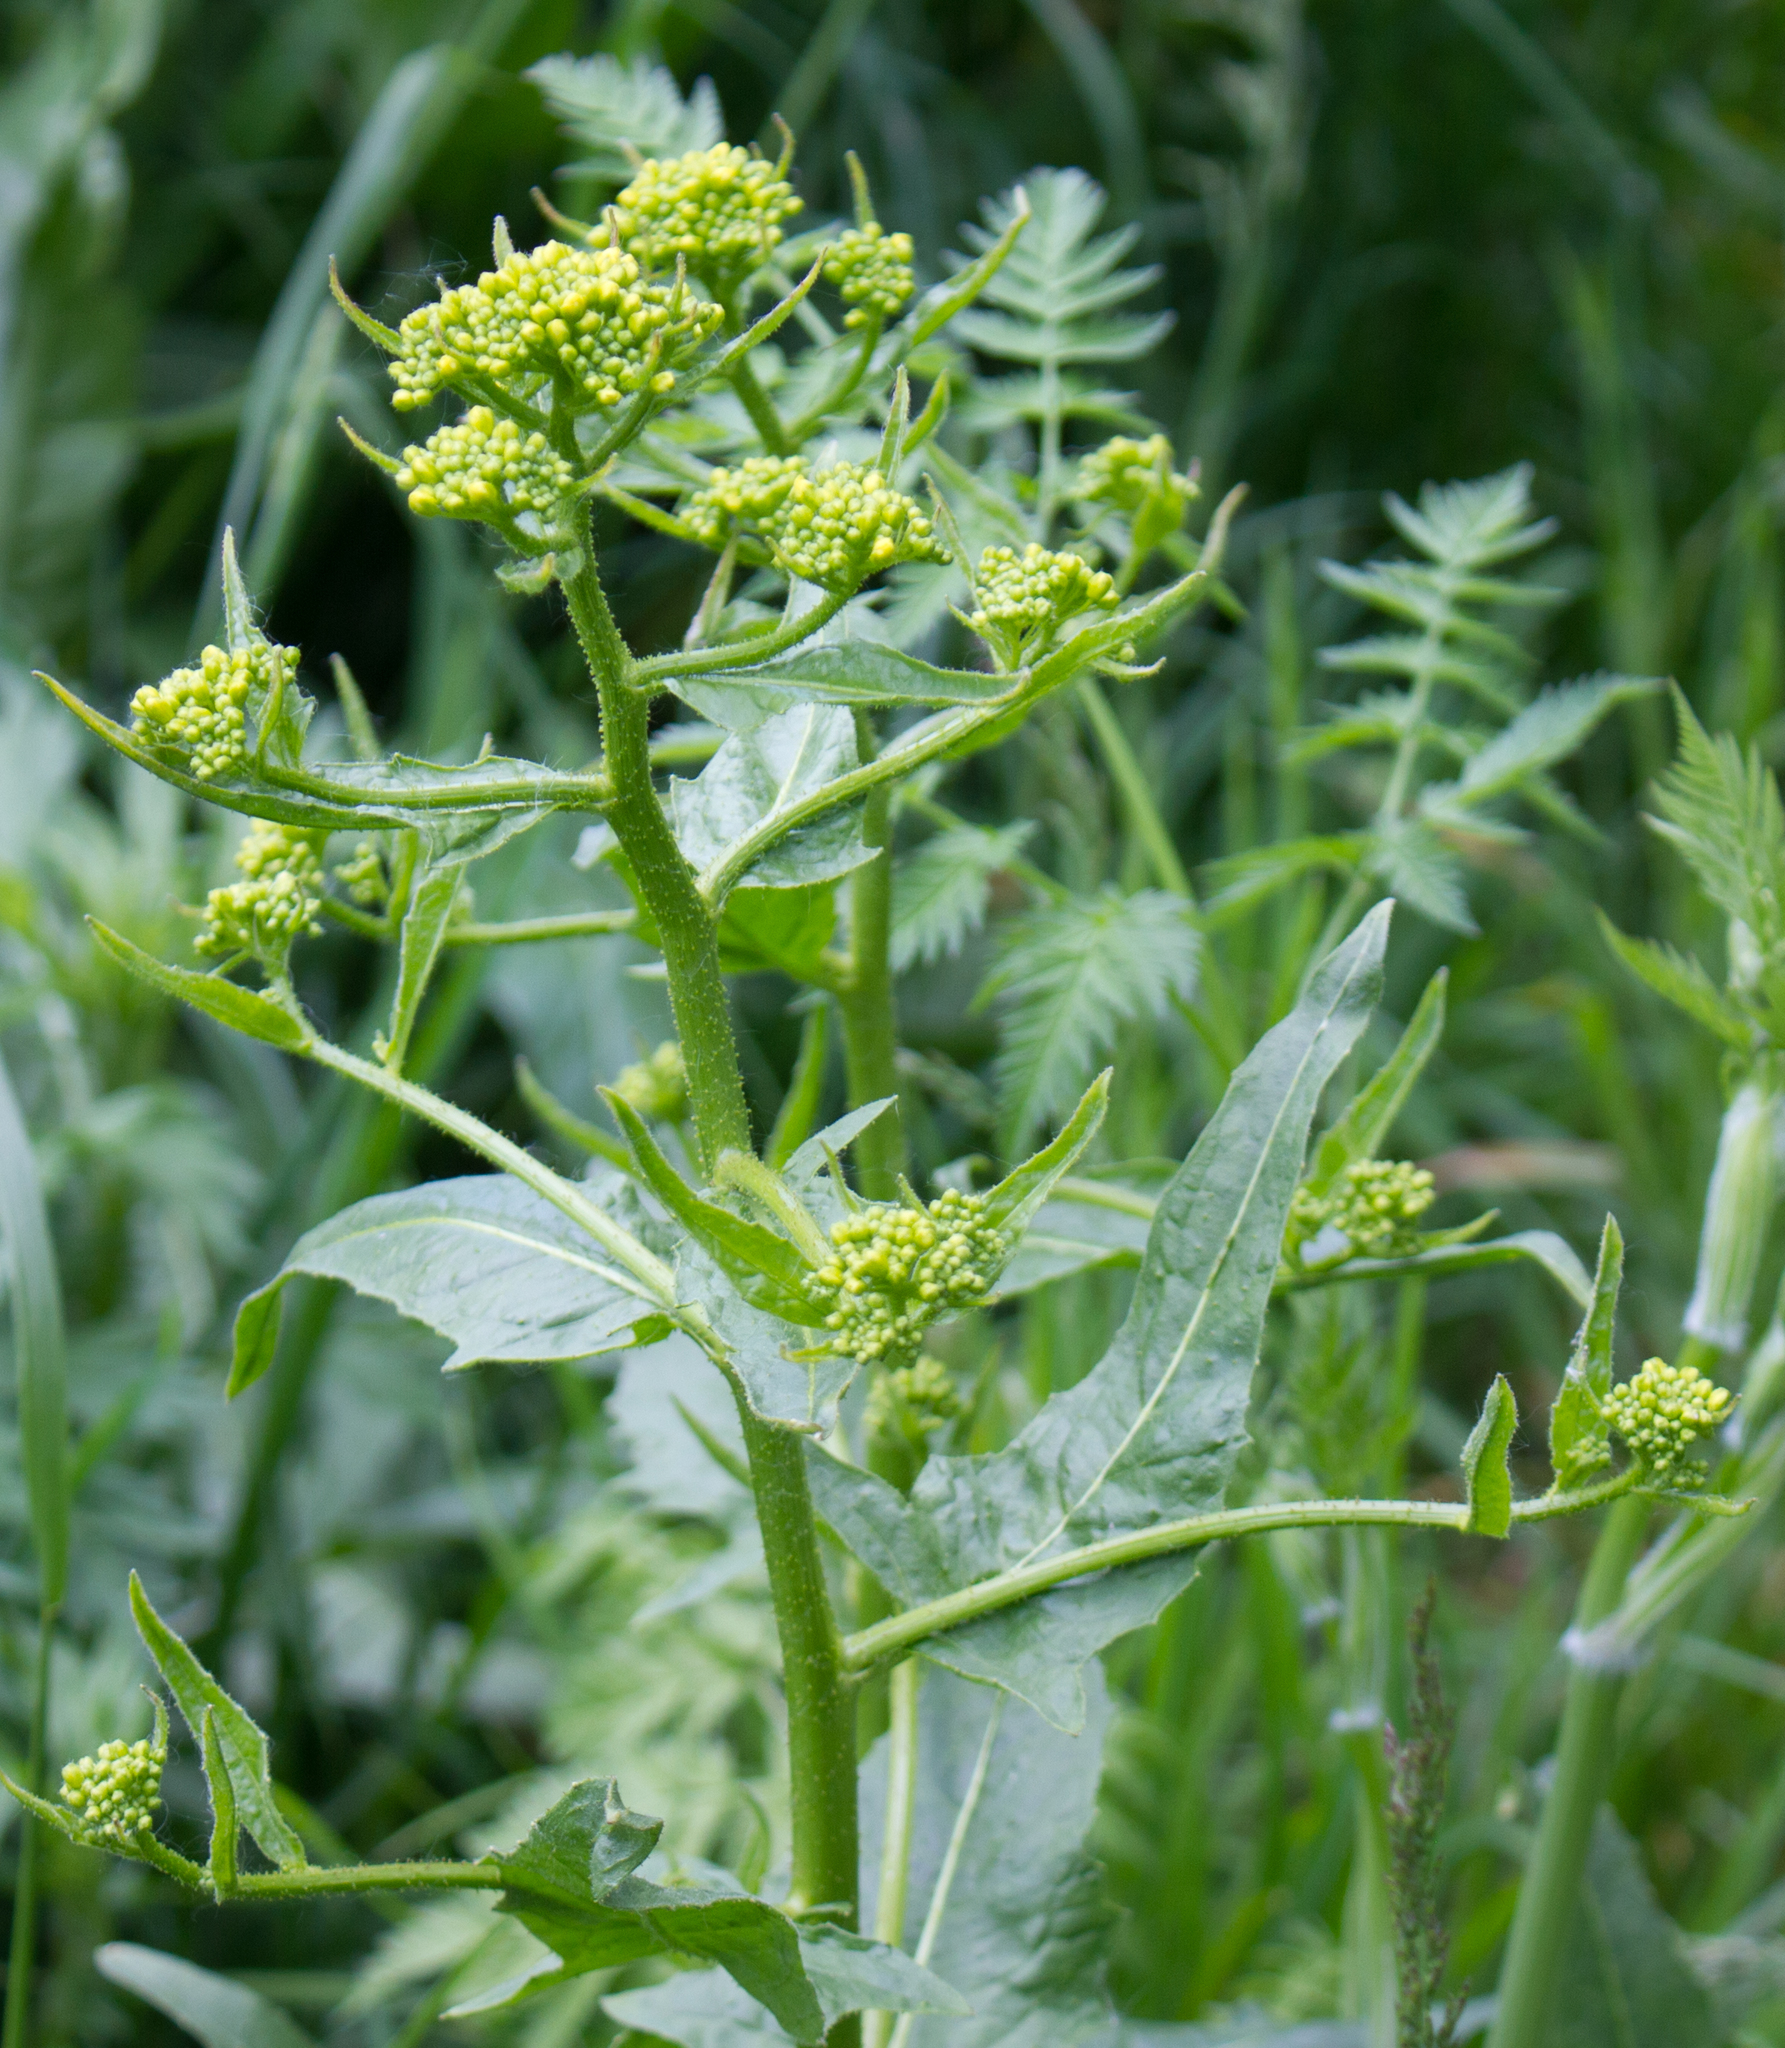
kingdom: Plantae
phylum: Tracheophyta
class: Magnoliopsida
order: Brassicales
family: Brassicaceae
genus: Bunias
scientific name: Bunias orientalis
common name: Warty-cabbage
